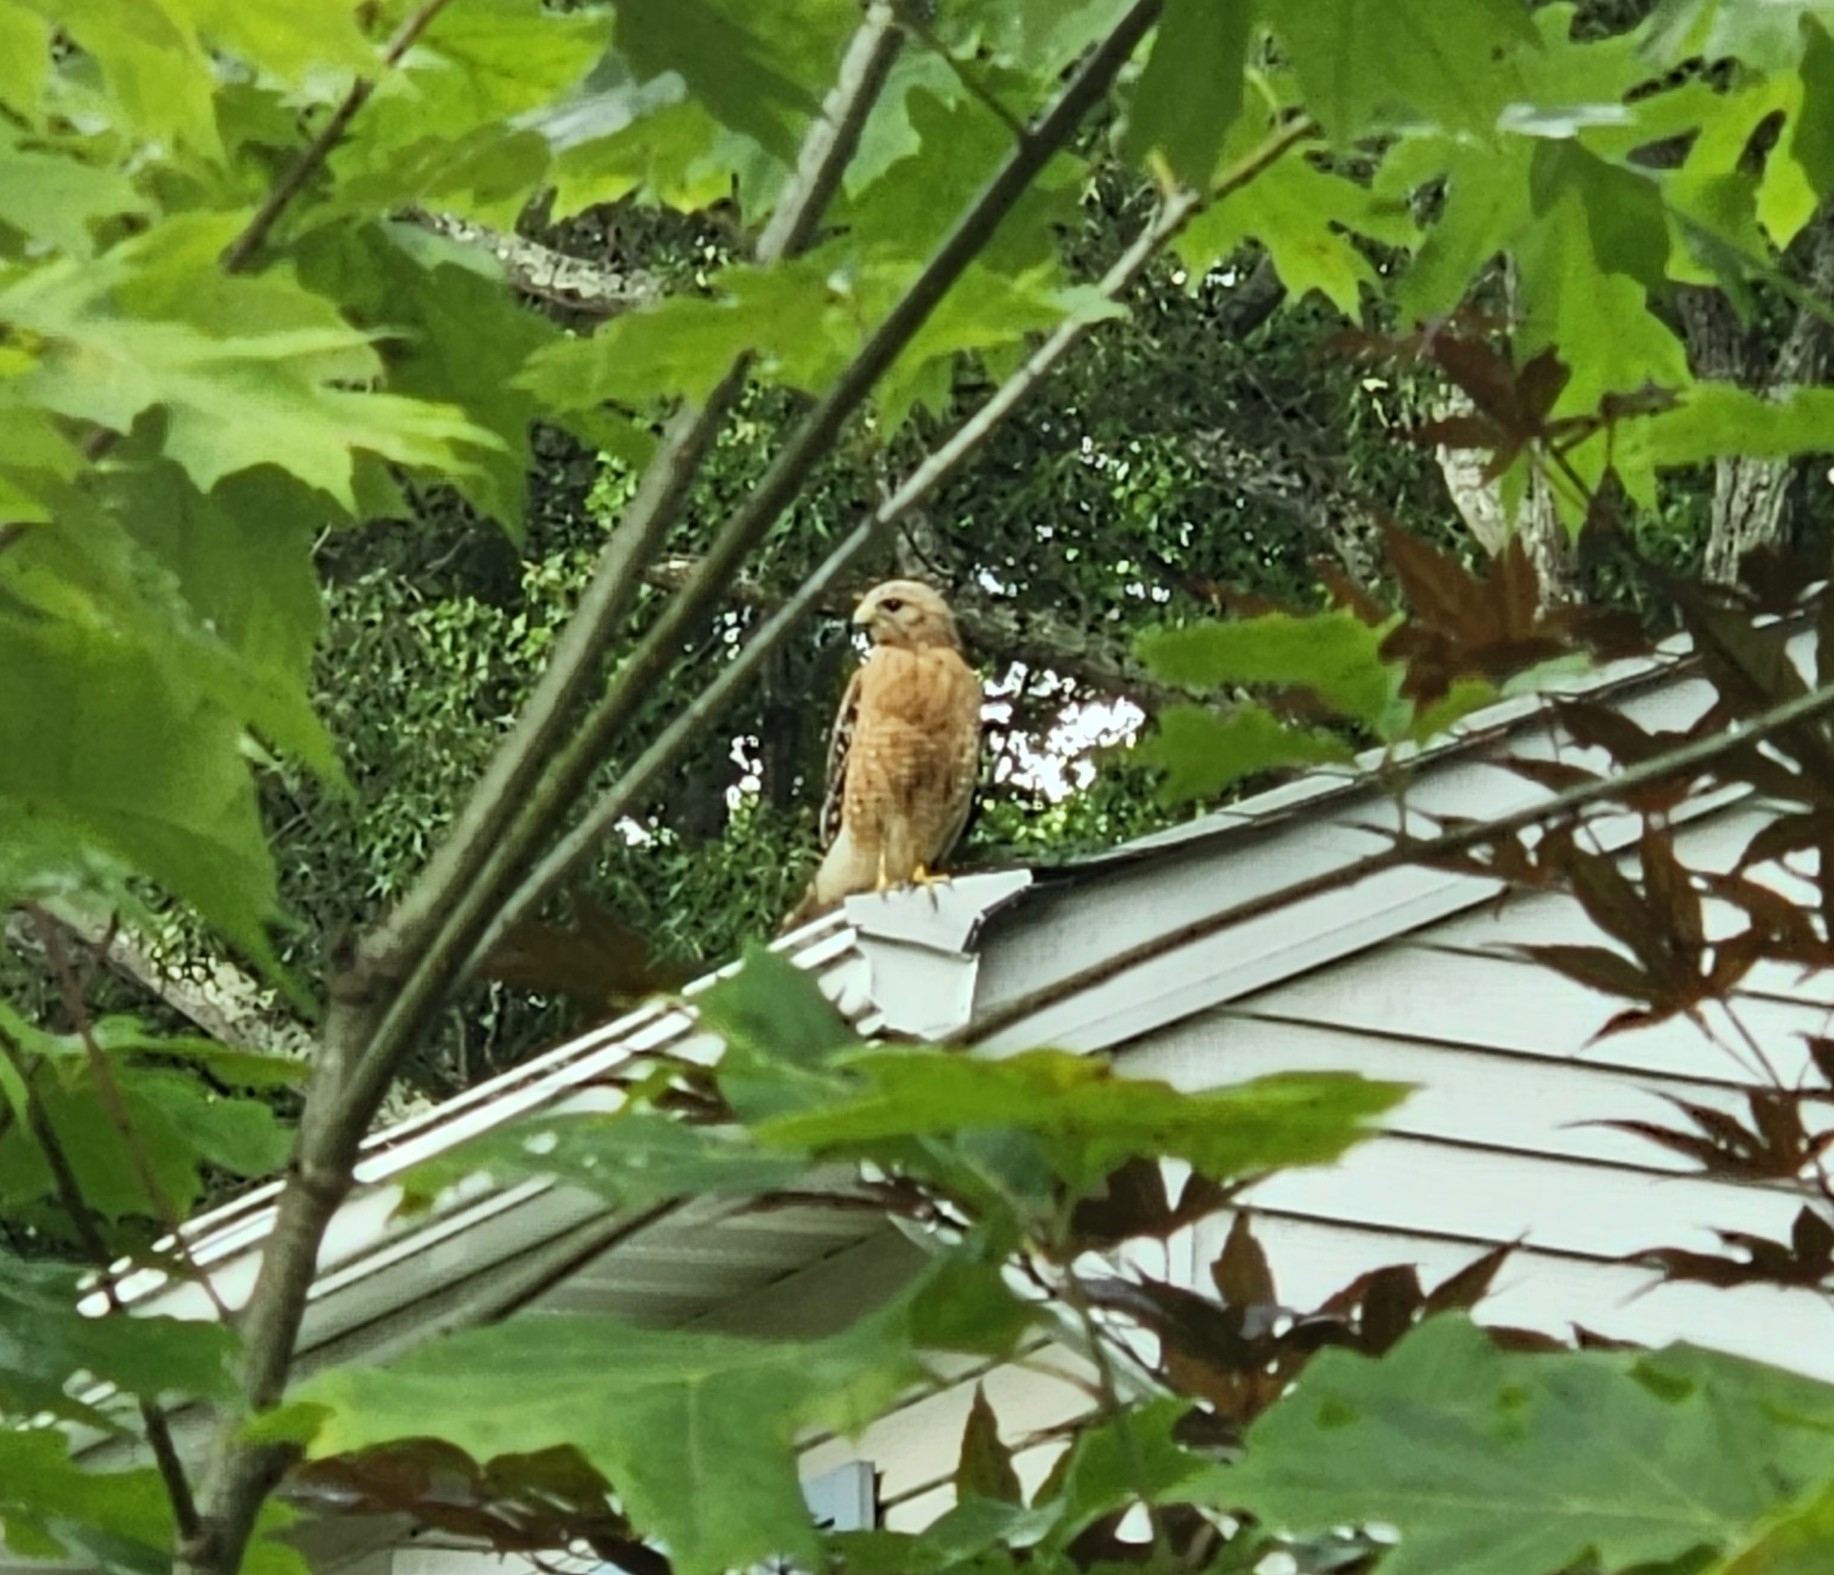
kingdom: Animalia
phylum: Chordata
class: Aves
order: Accipitriformes
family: Accipitridae
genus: Buteo
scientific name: Buteo lineatus
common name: Red-shouldered hawk
